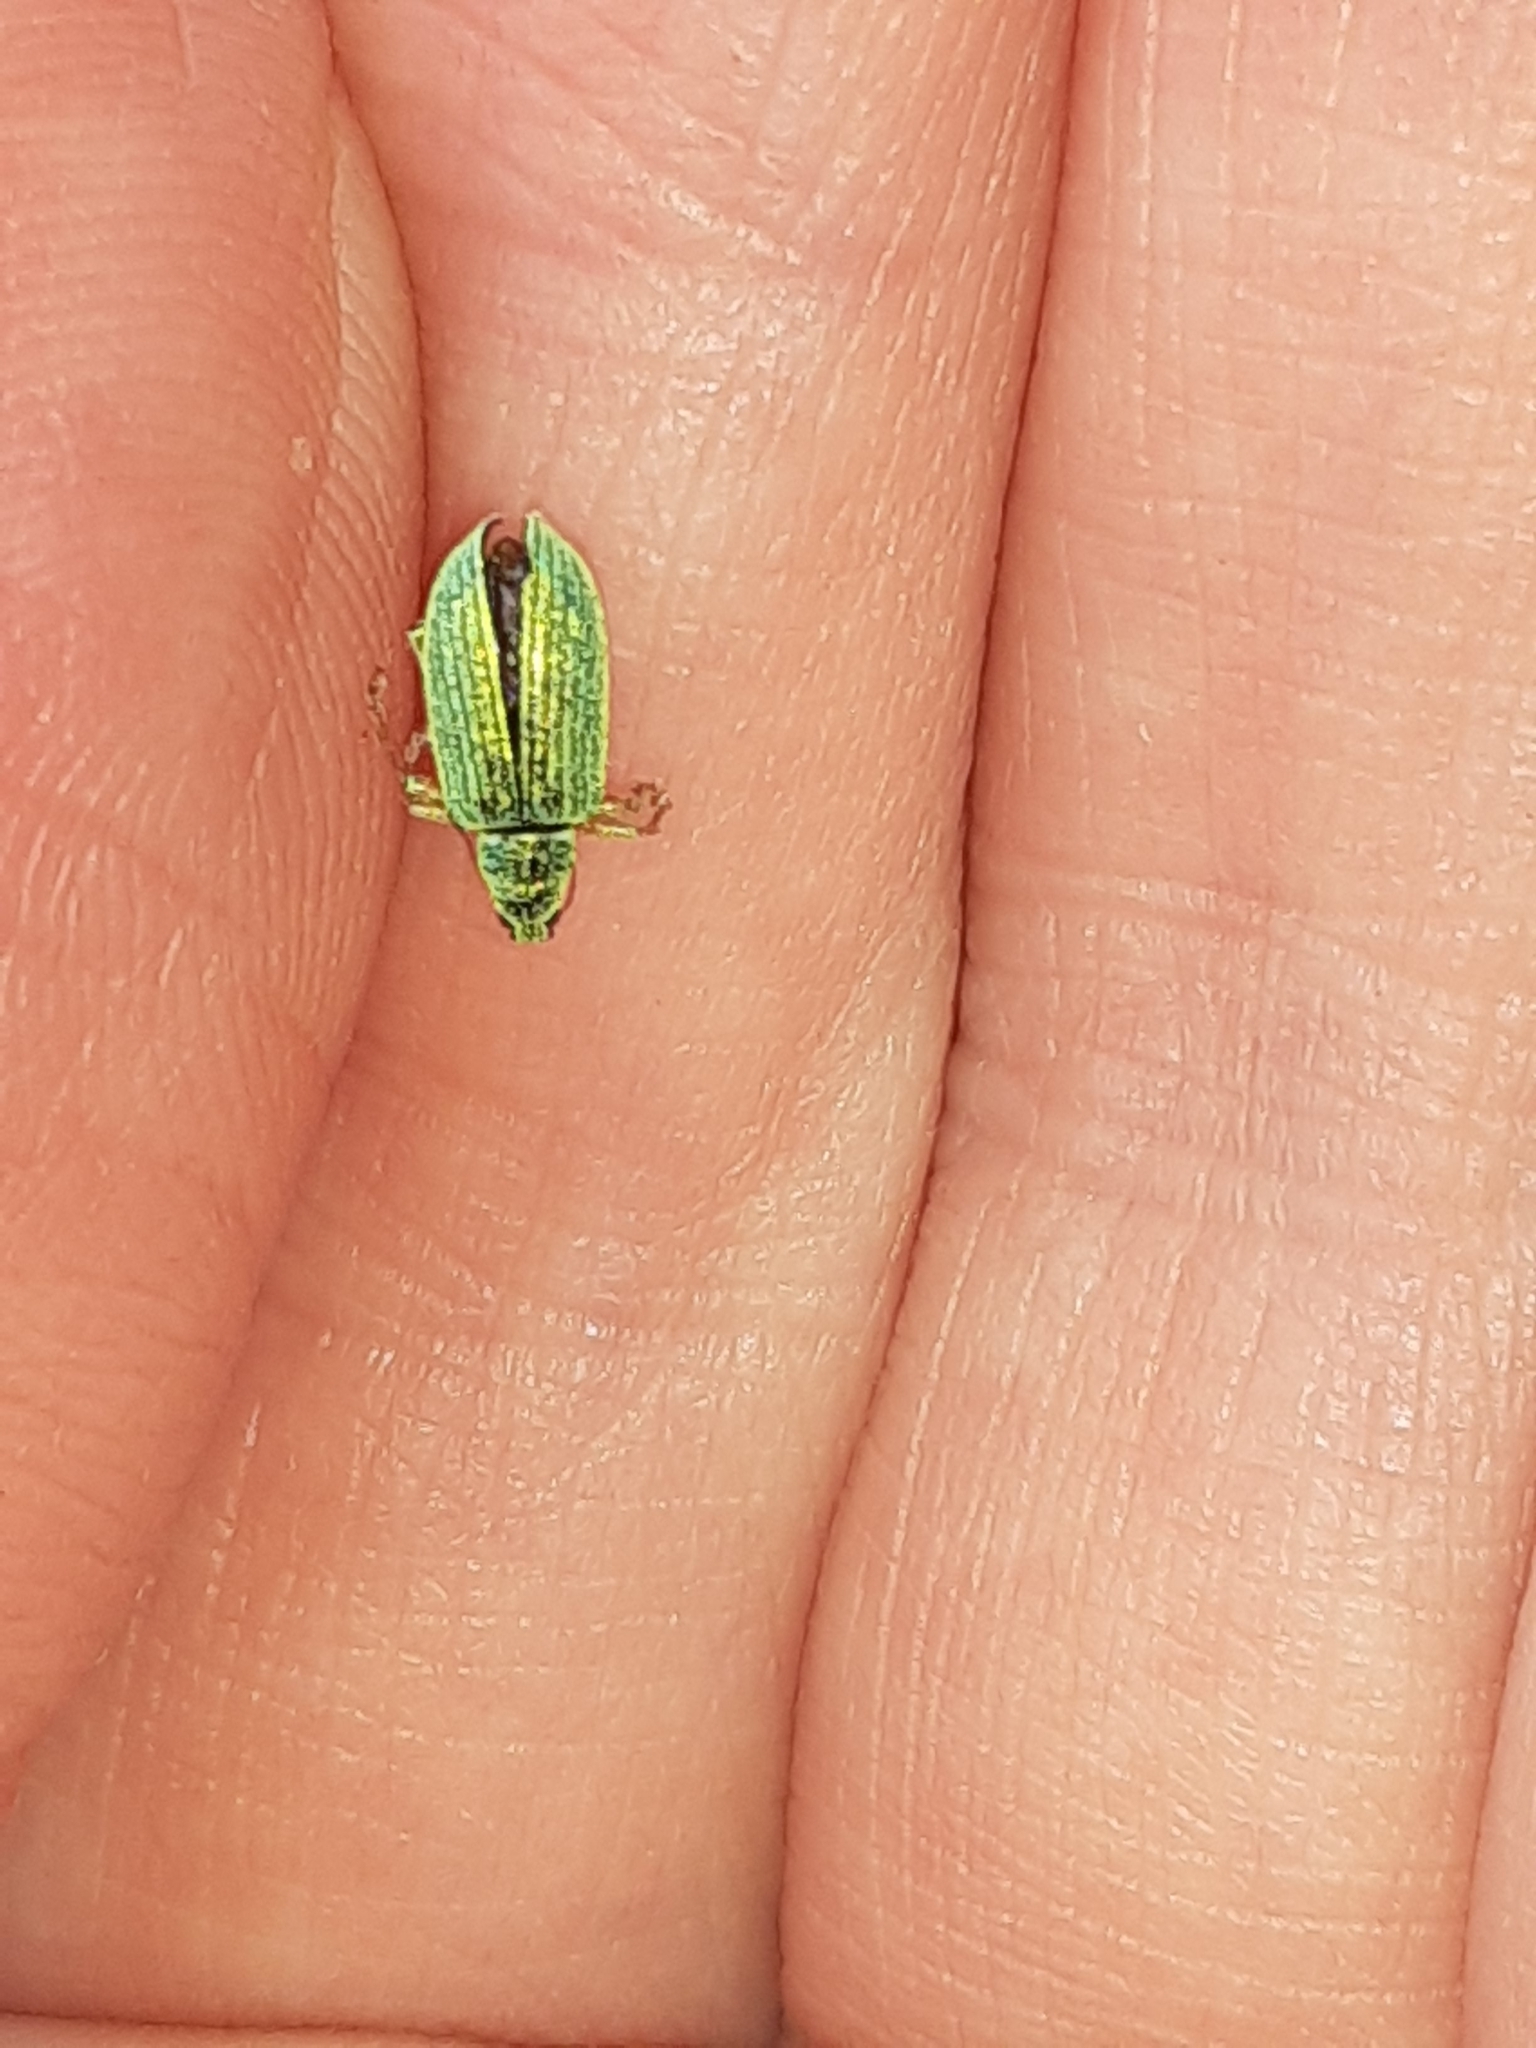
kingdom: Animalia
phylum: Arthropoda
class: Insecta
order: Coleoptera
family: Curculionidae
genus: Polydrusus
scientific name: Polydrusus formosus
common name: Weevil
